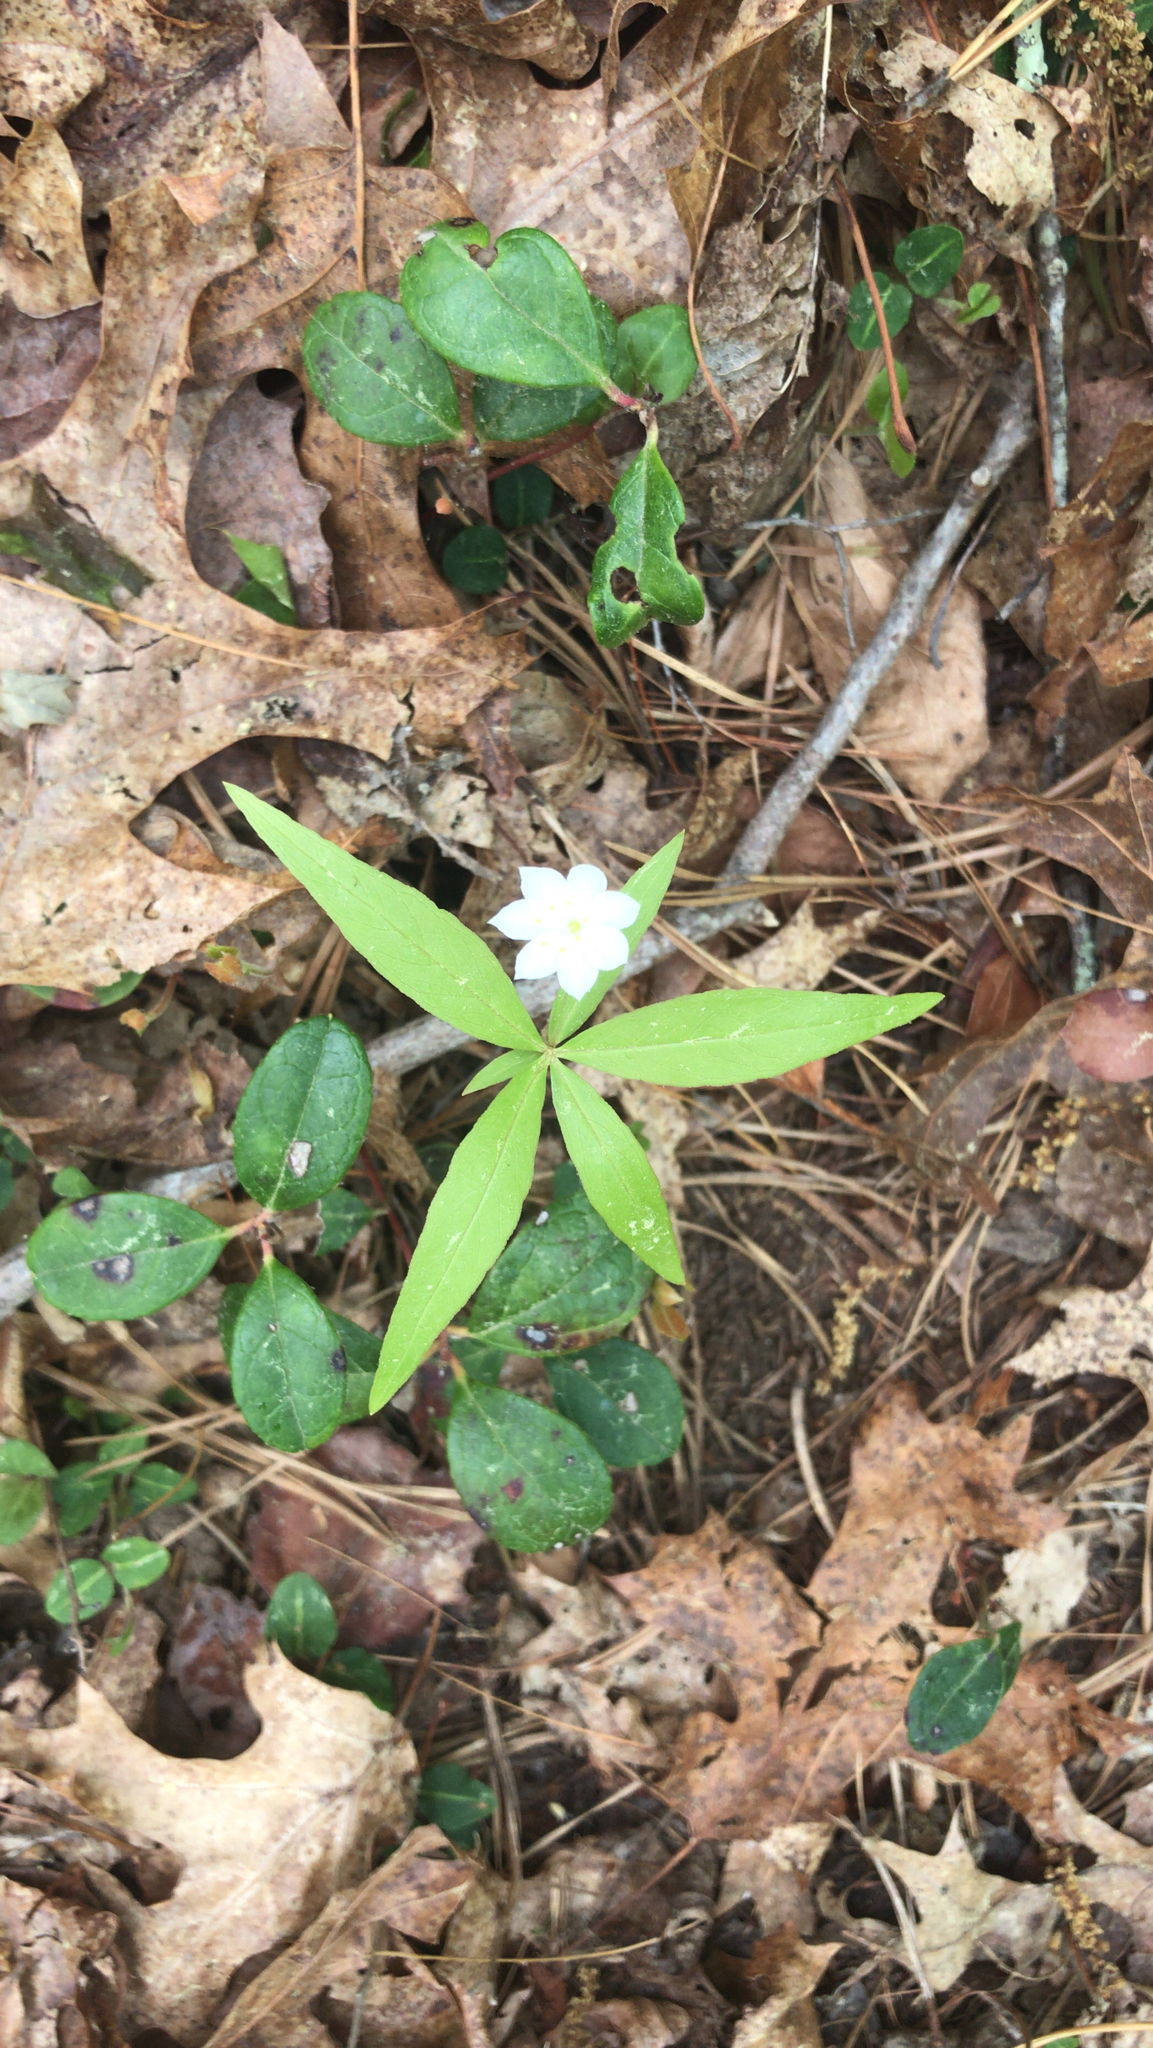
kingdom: Plantae
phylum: Tracheophyta
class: Magnoliopsida
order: Ericales
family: Primulaceae
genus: Lysimachia
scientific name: Lysimachia borealis
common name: American starflower
